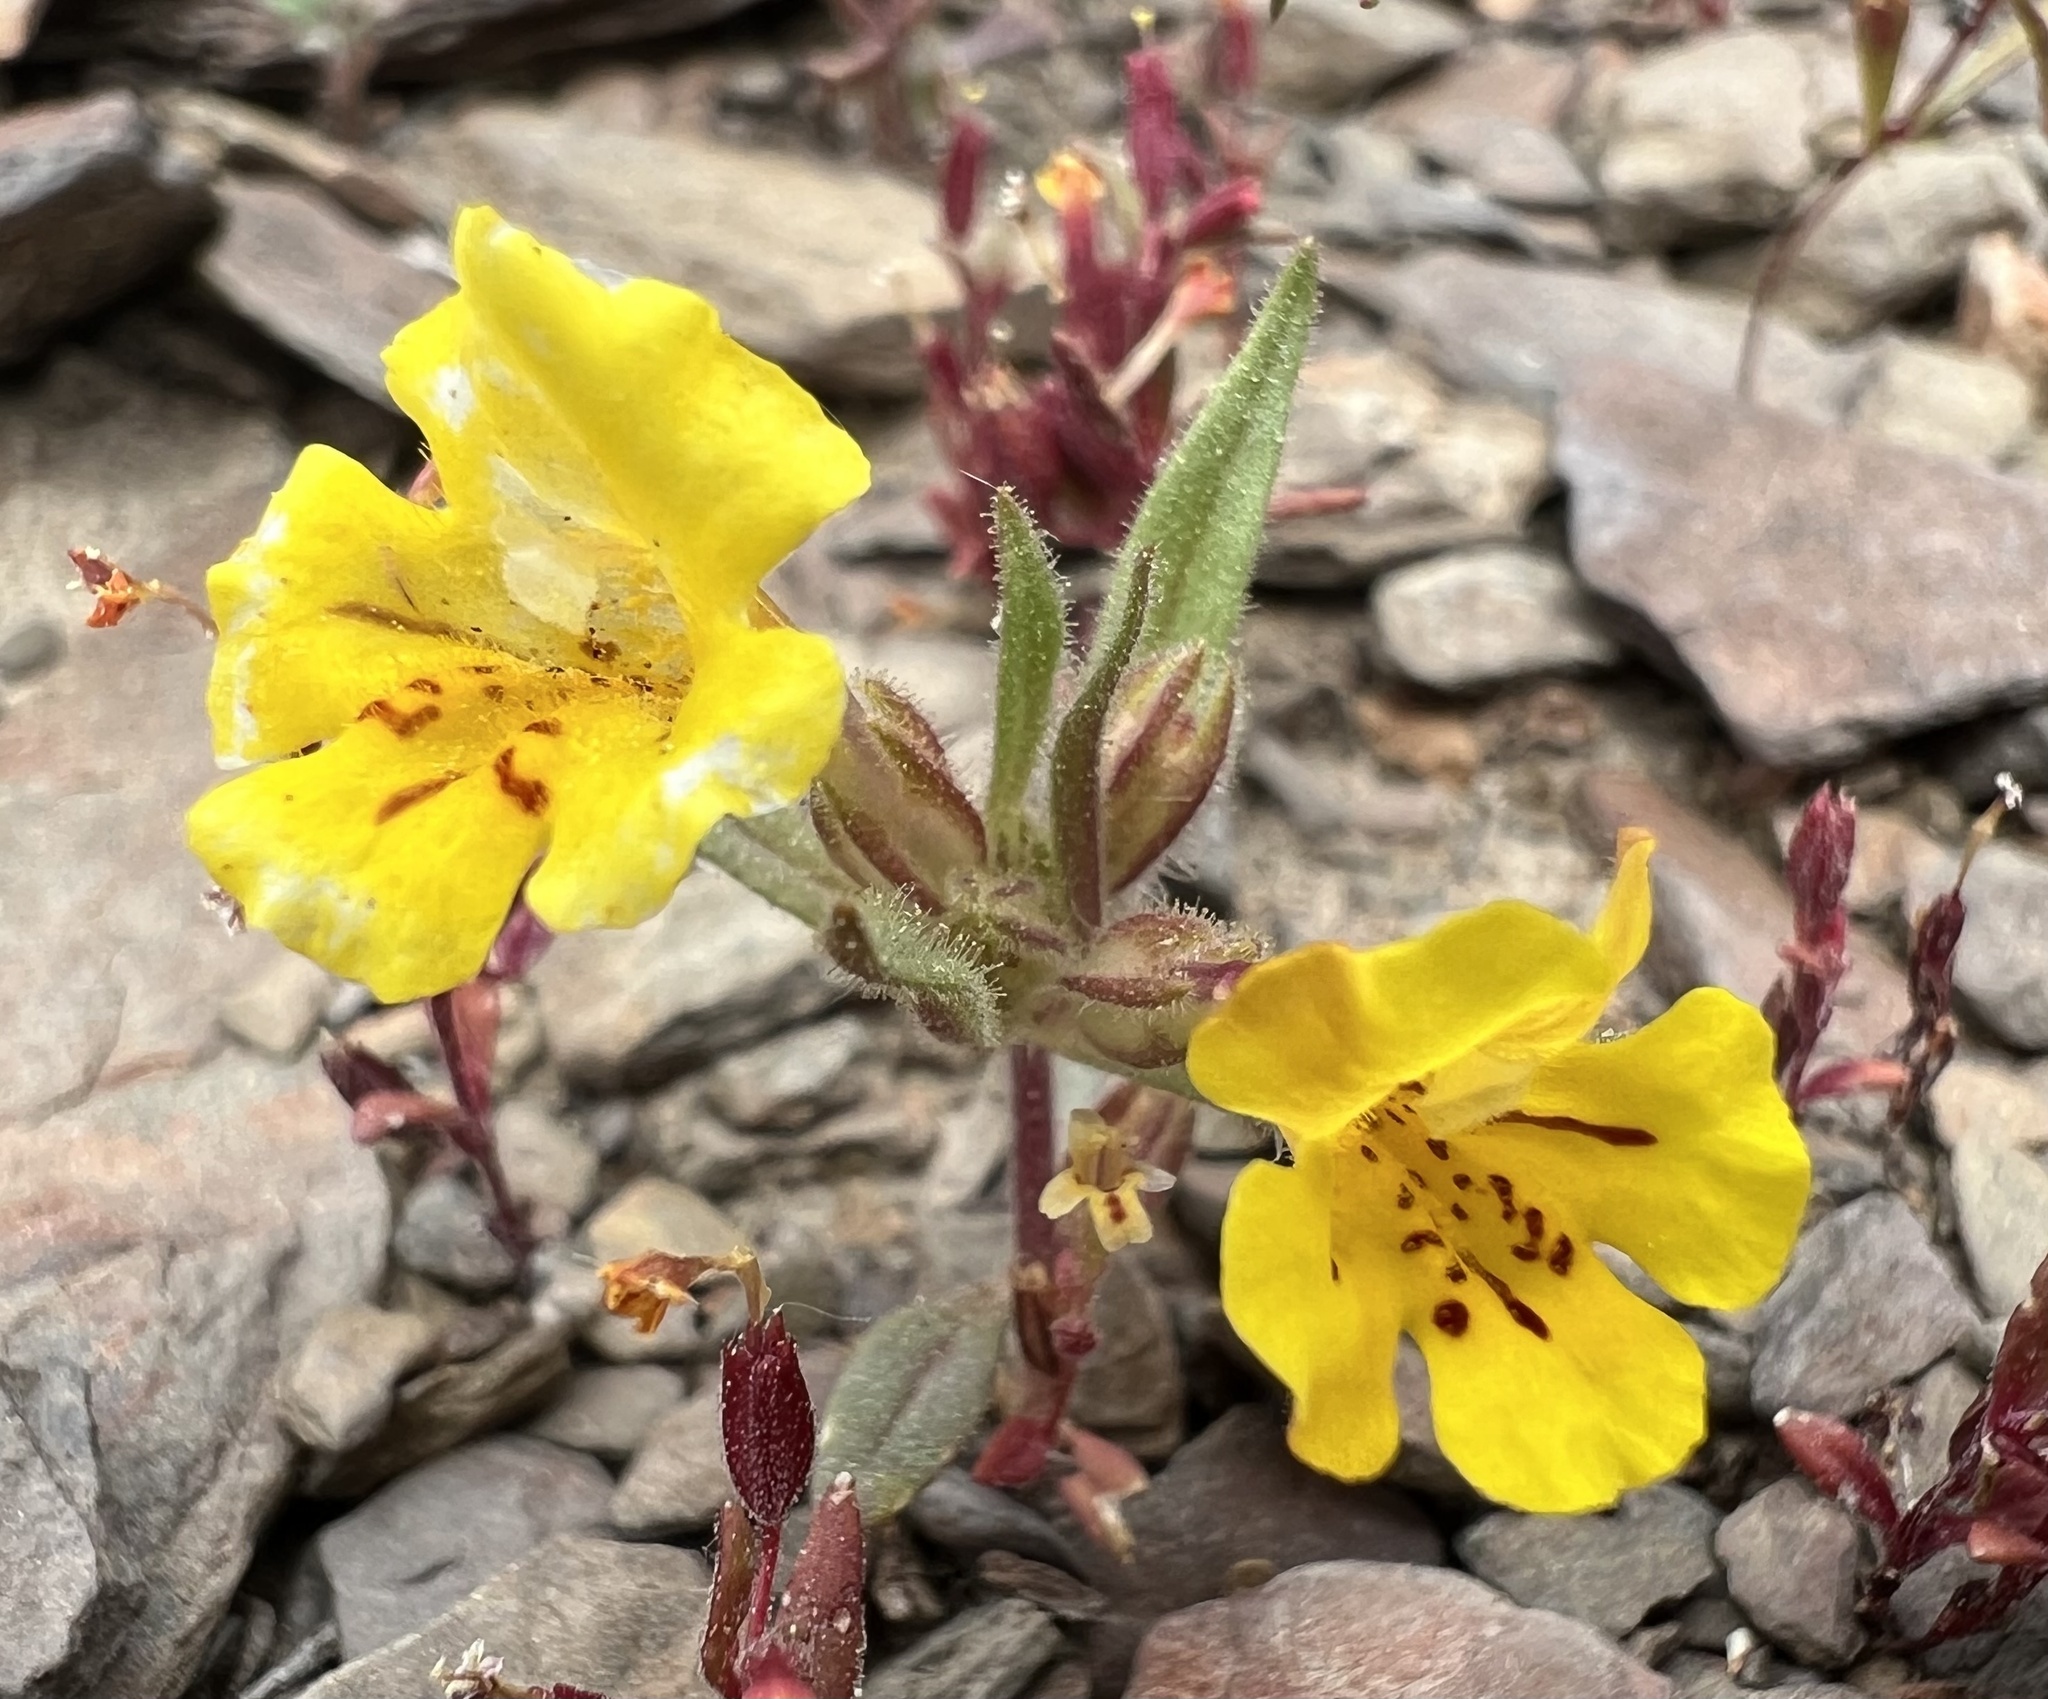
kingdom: Plantae
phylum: Tracheophyta
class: Magnoliopsida
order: Lamiales
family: Phrymaceae
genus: Diplacus
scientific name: Diplacus mephiticus
